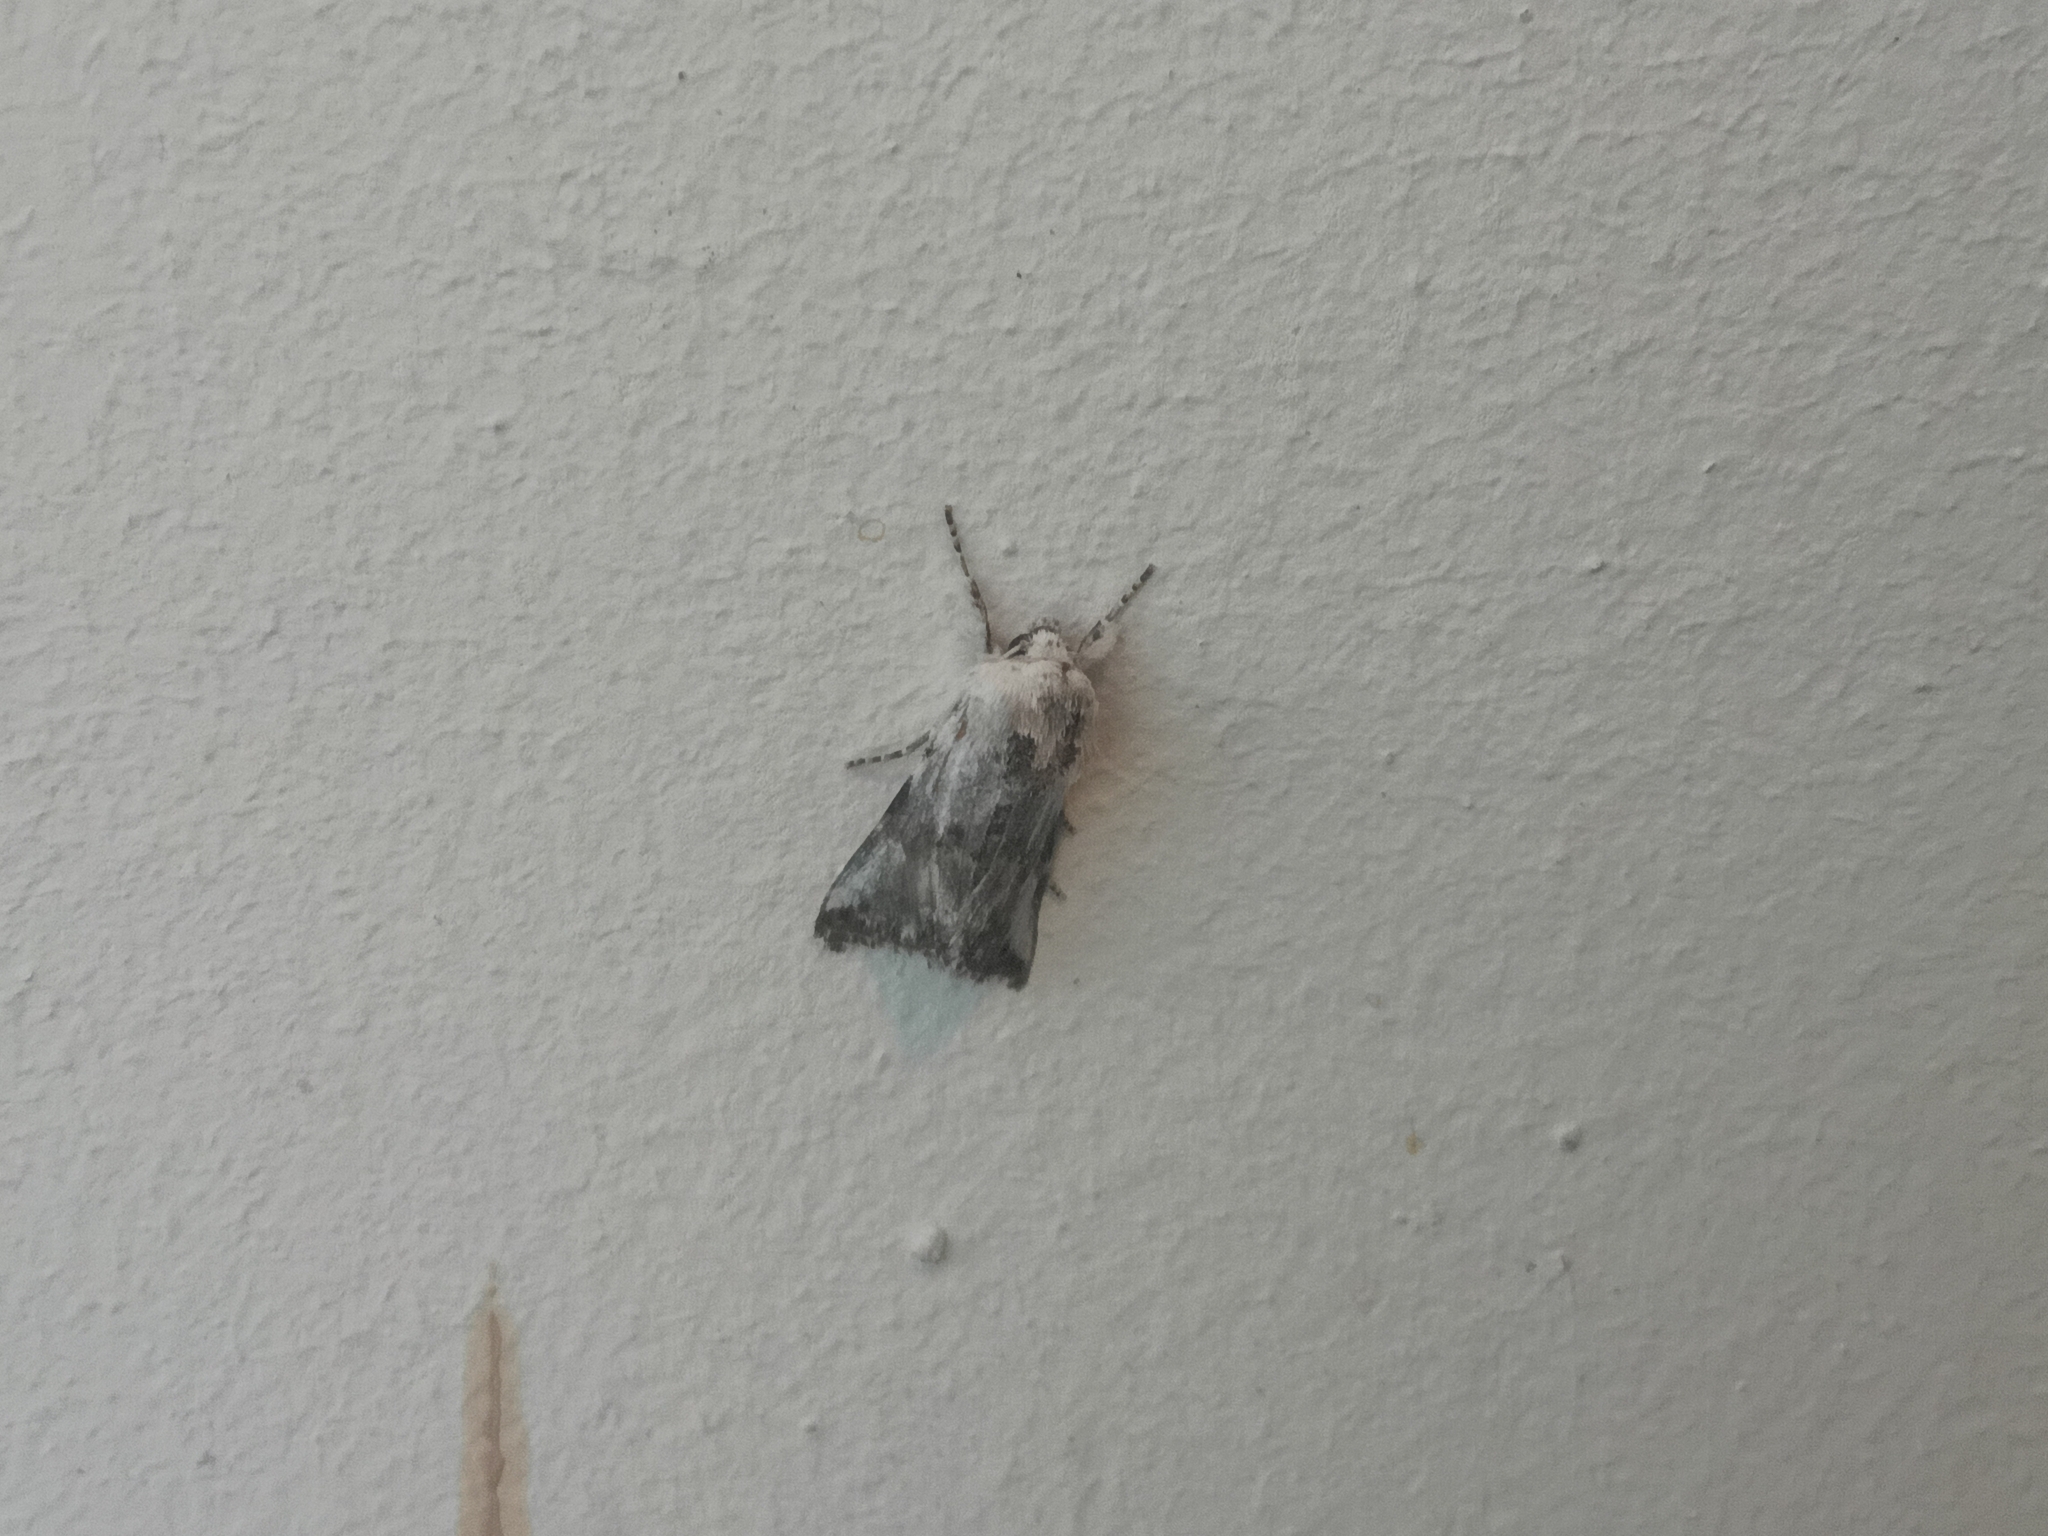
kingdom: Animalia
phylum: Arthropoda
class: Insecta
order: Lepidoptera
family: Noctuidae
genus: Calophasia
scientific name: Calophasia opalina
